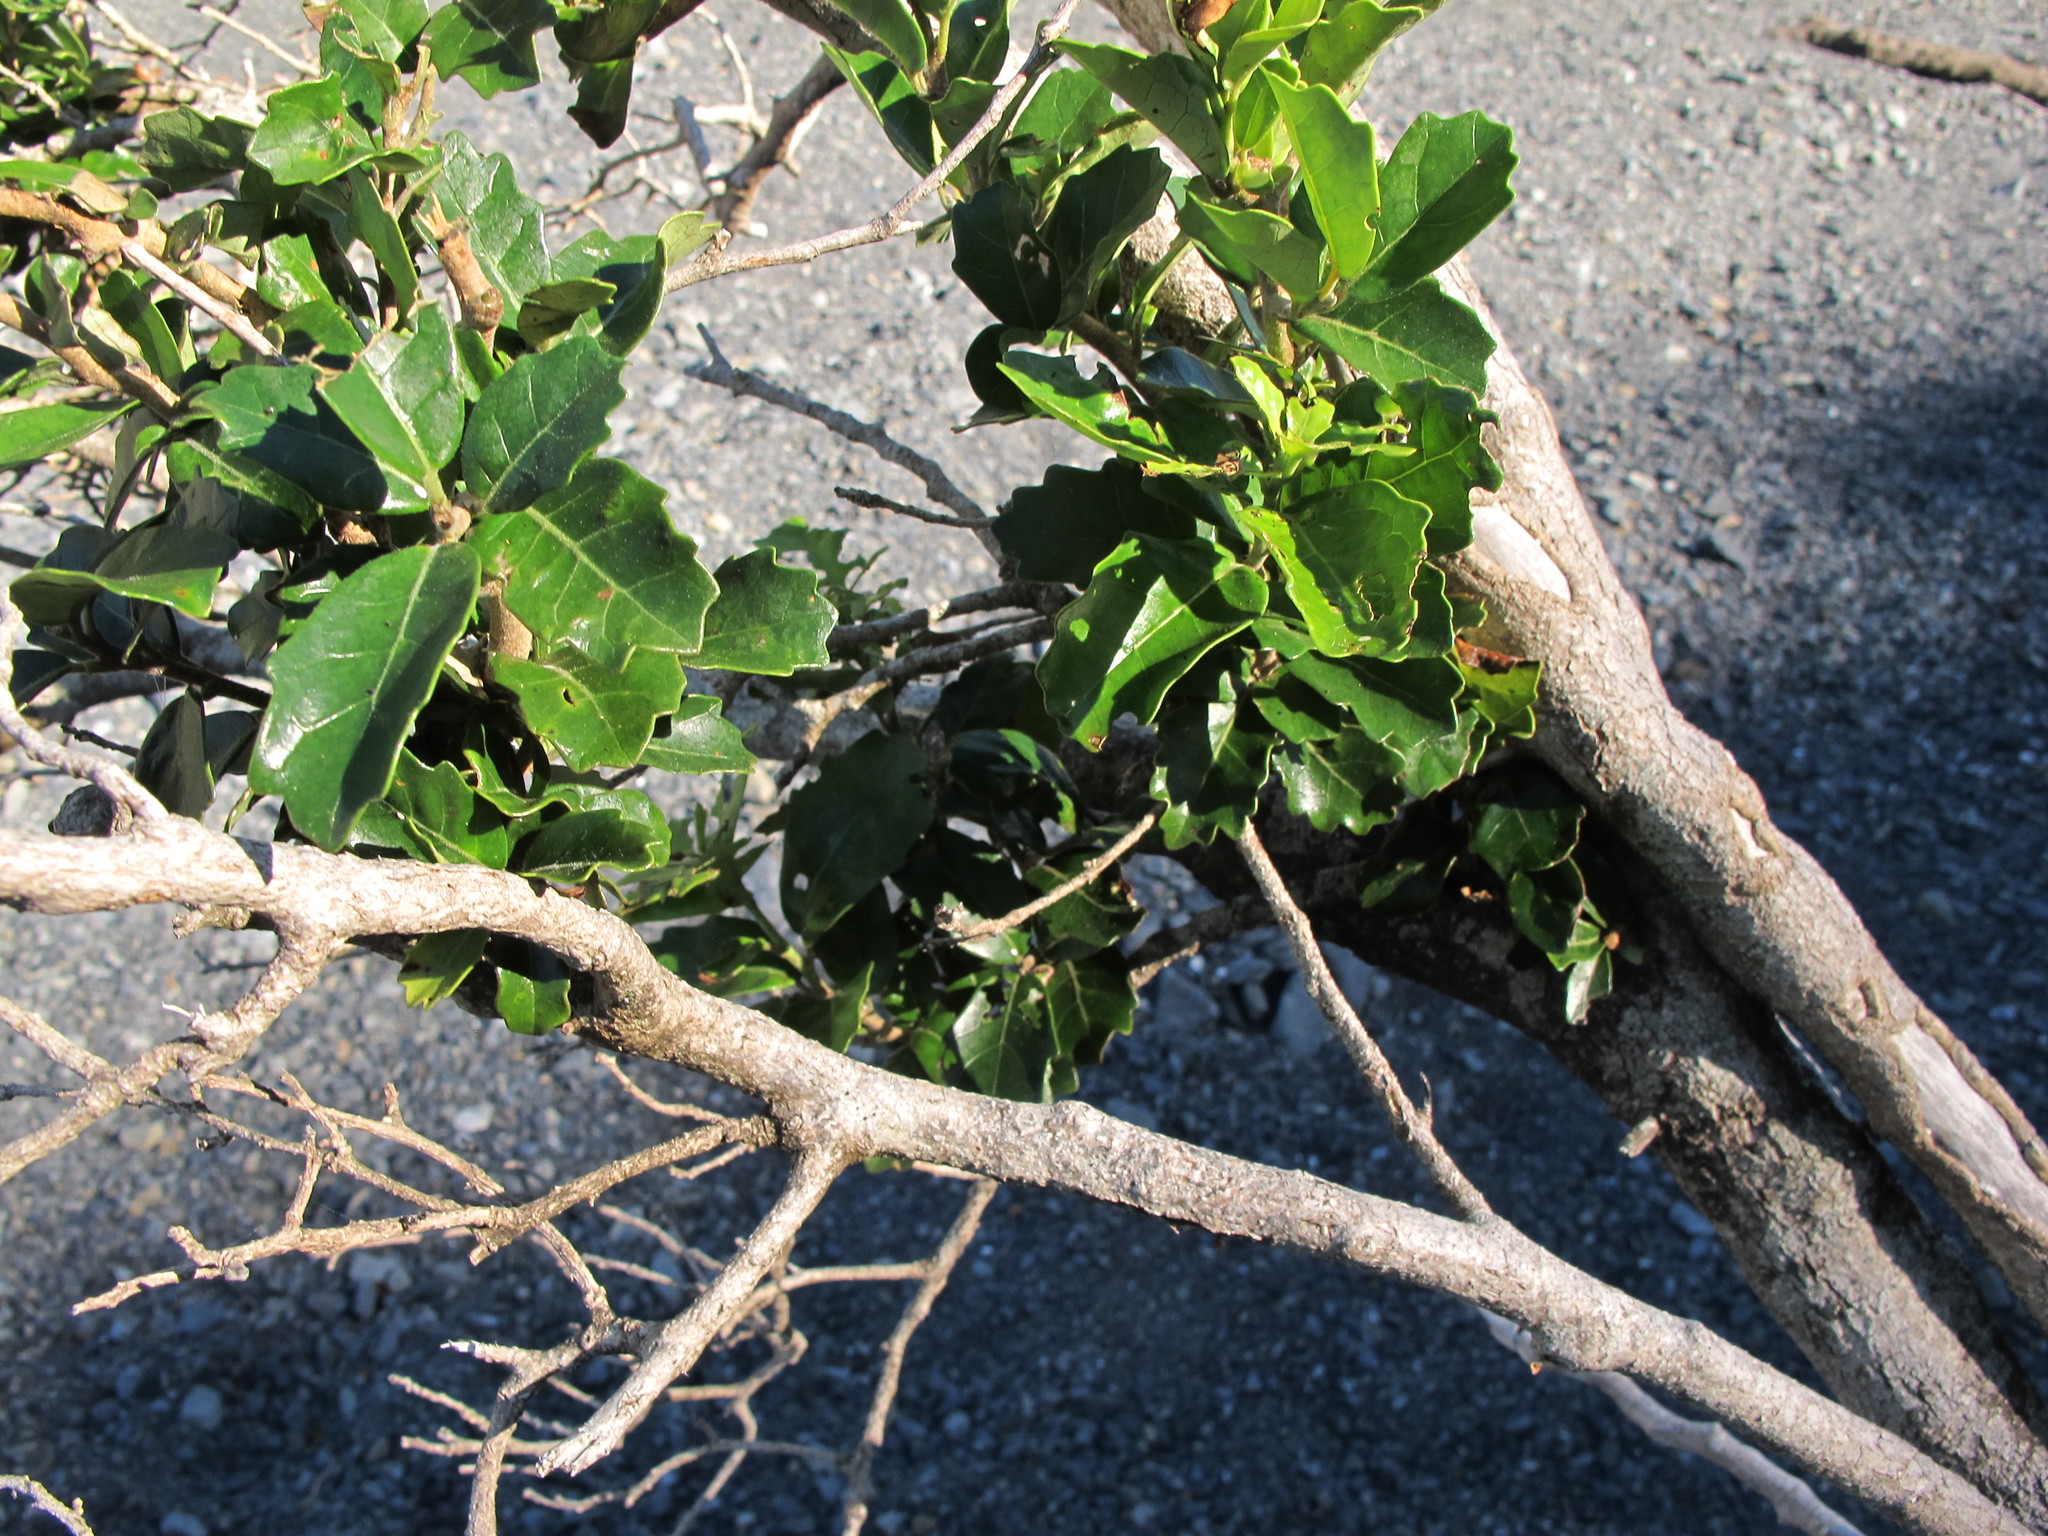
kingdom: Plantae
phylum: Tracheophyta
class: Magnoliopsida
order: Apiales
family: Pennantiaceae
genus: Pennantia
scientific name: Pennantia corymbosa
